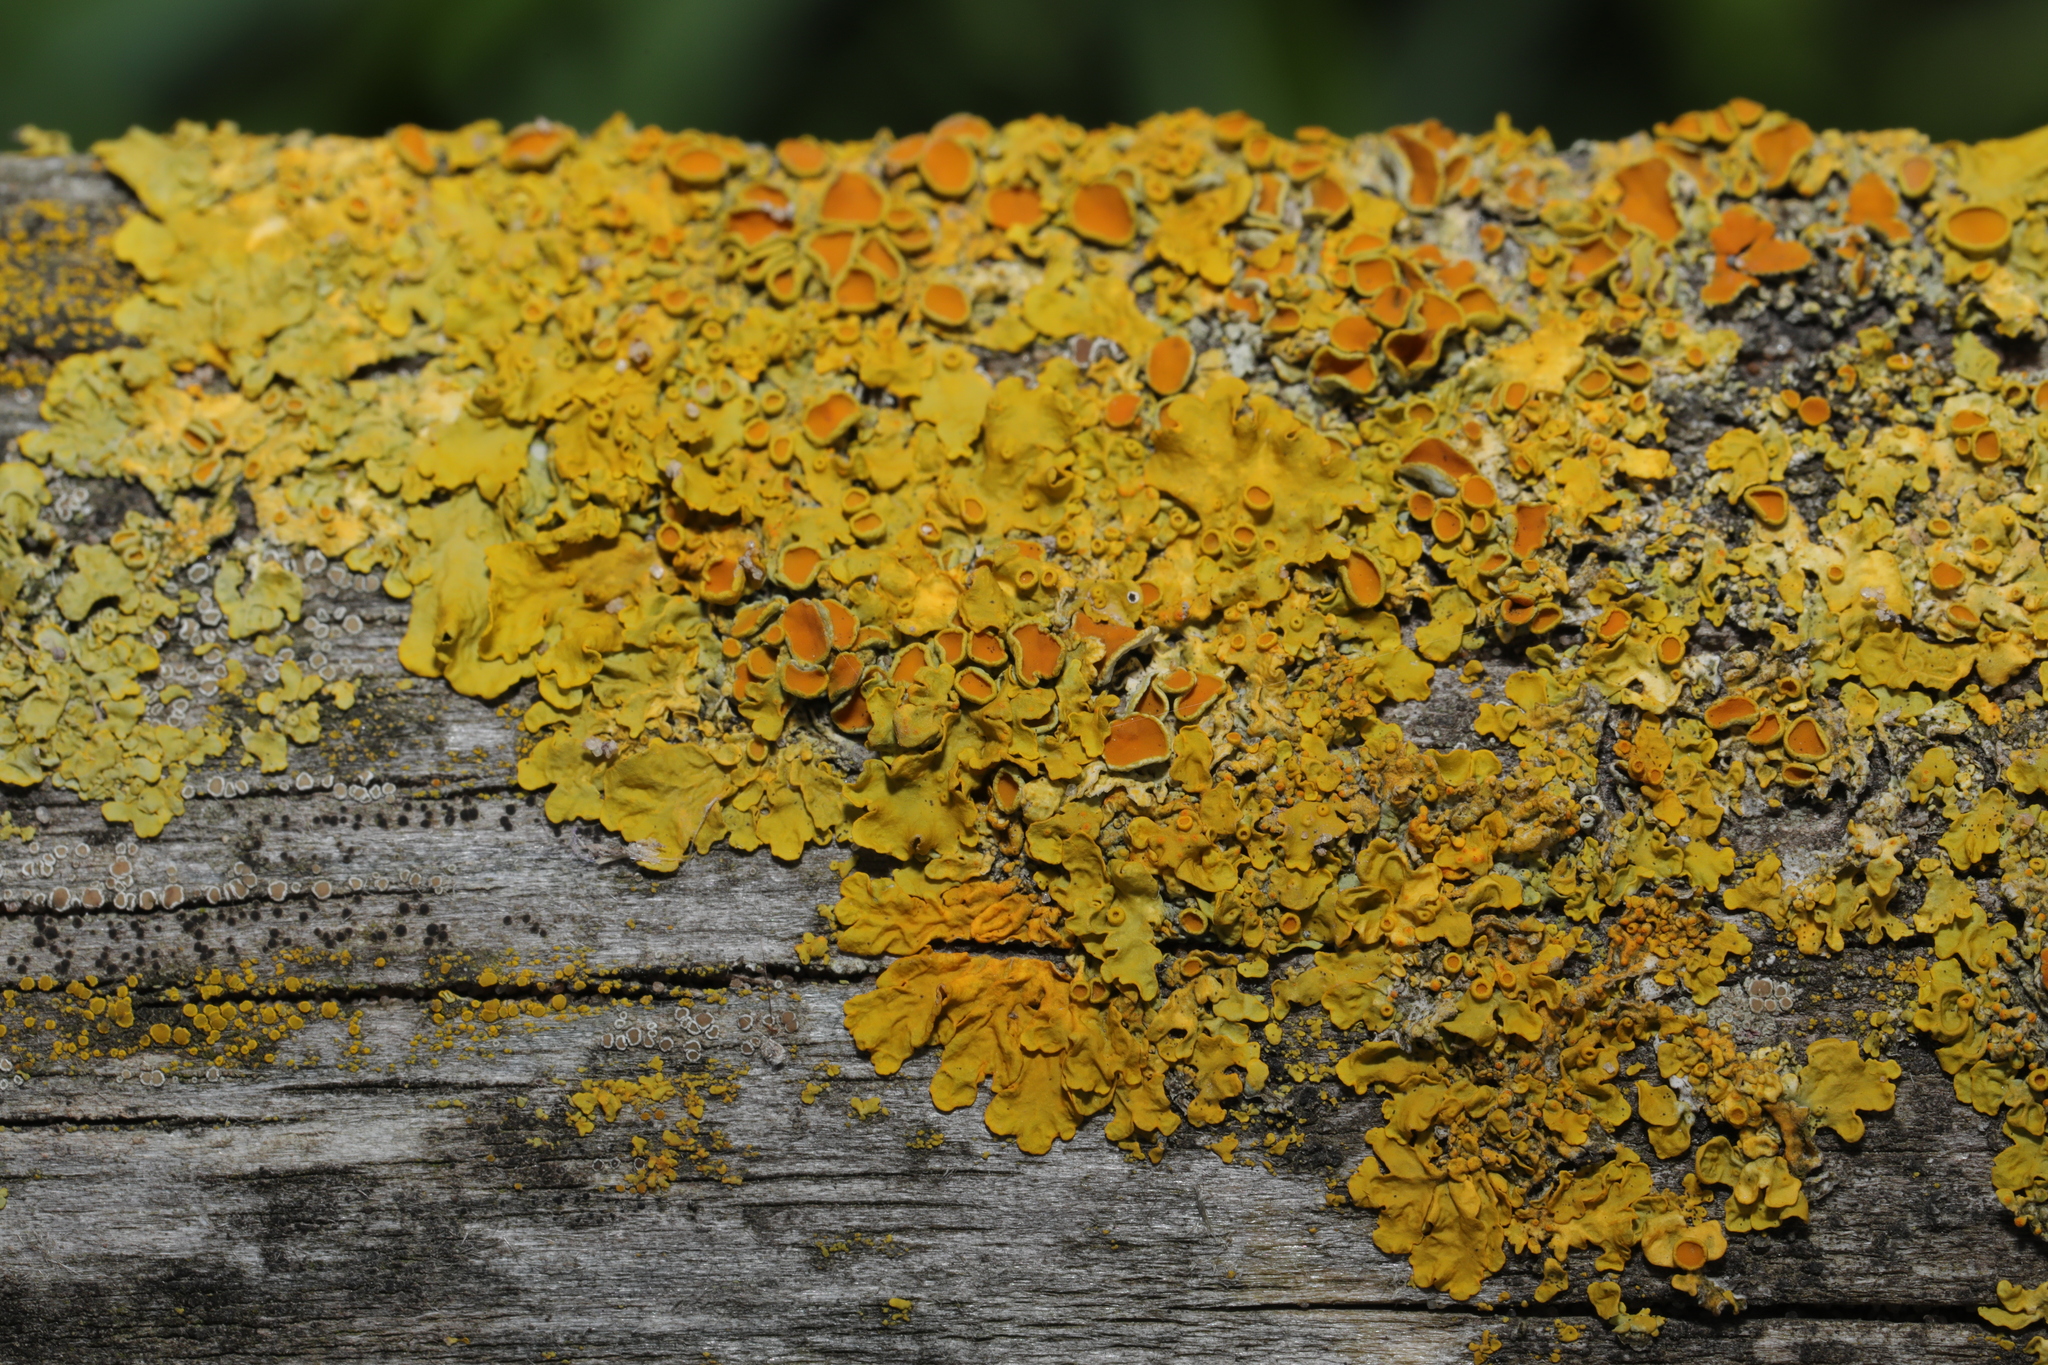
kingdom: Fungi
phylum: Ascomycota
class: Lecanoromycetes
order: Teloschistales
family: Teloschistaceae
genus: Xanthoria
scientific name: Xanthoria parietina
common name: Common orange lichen
